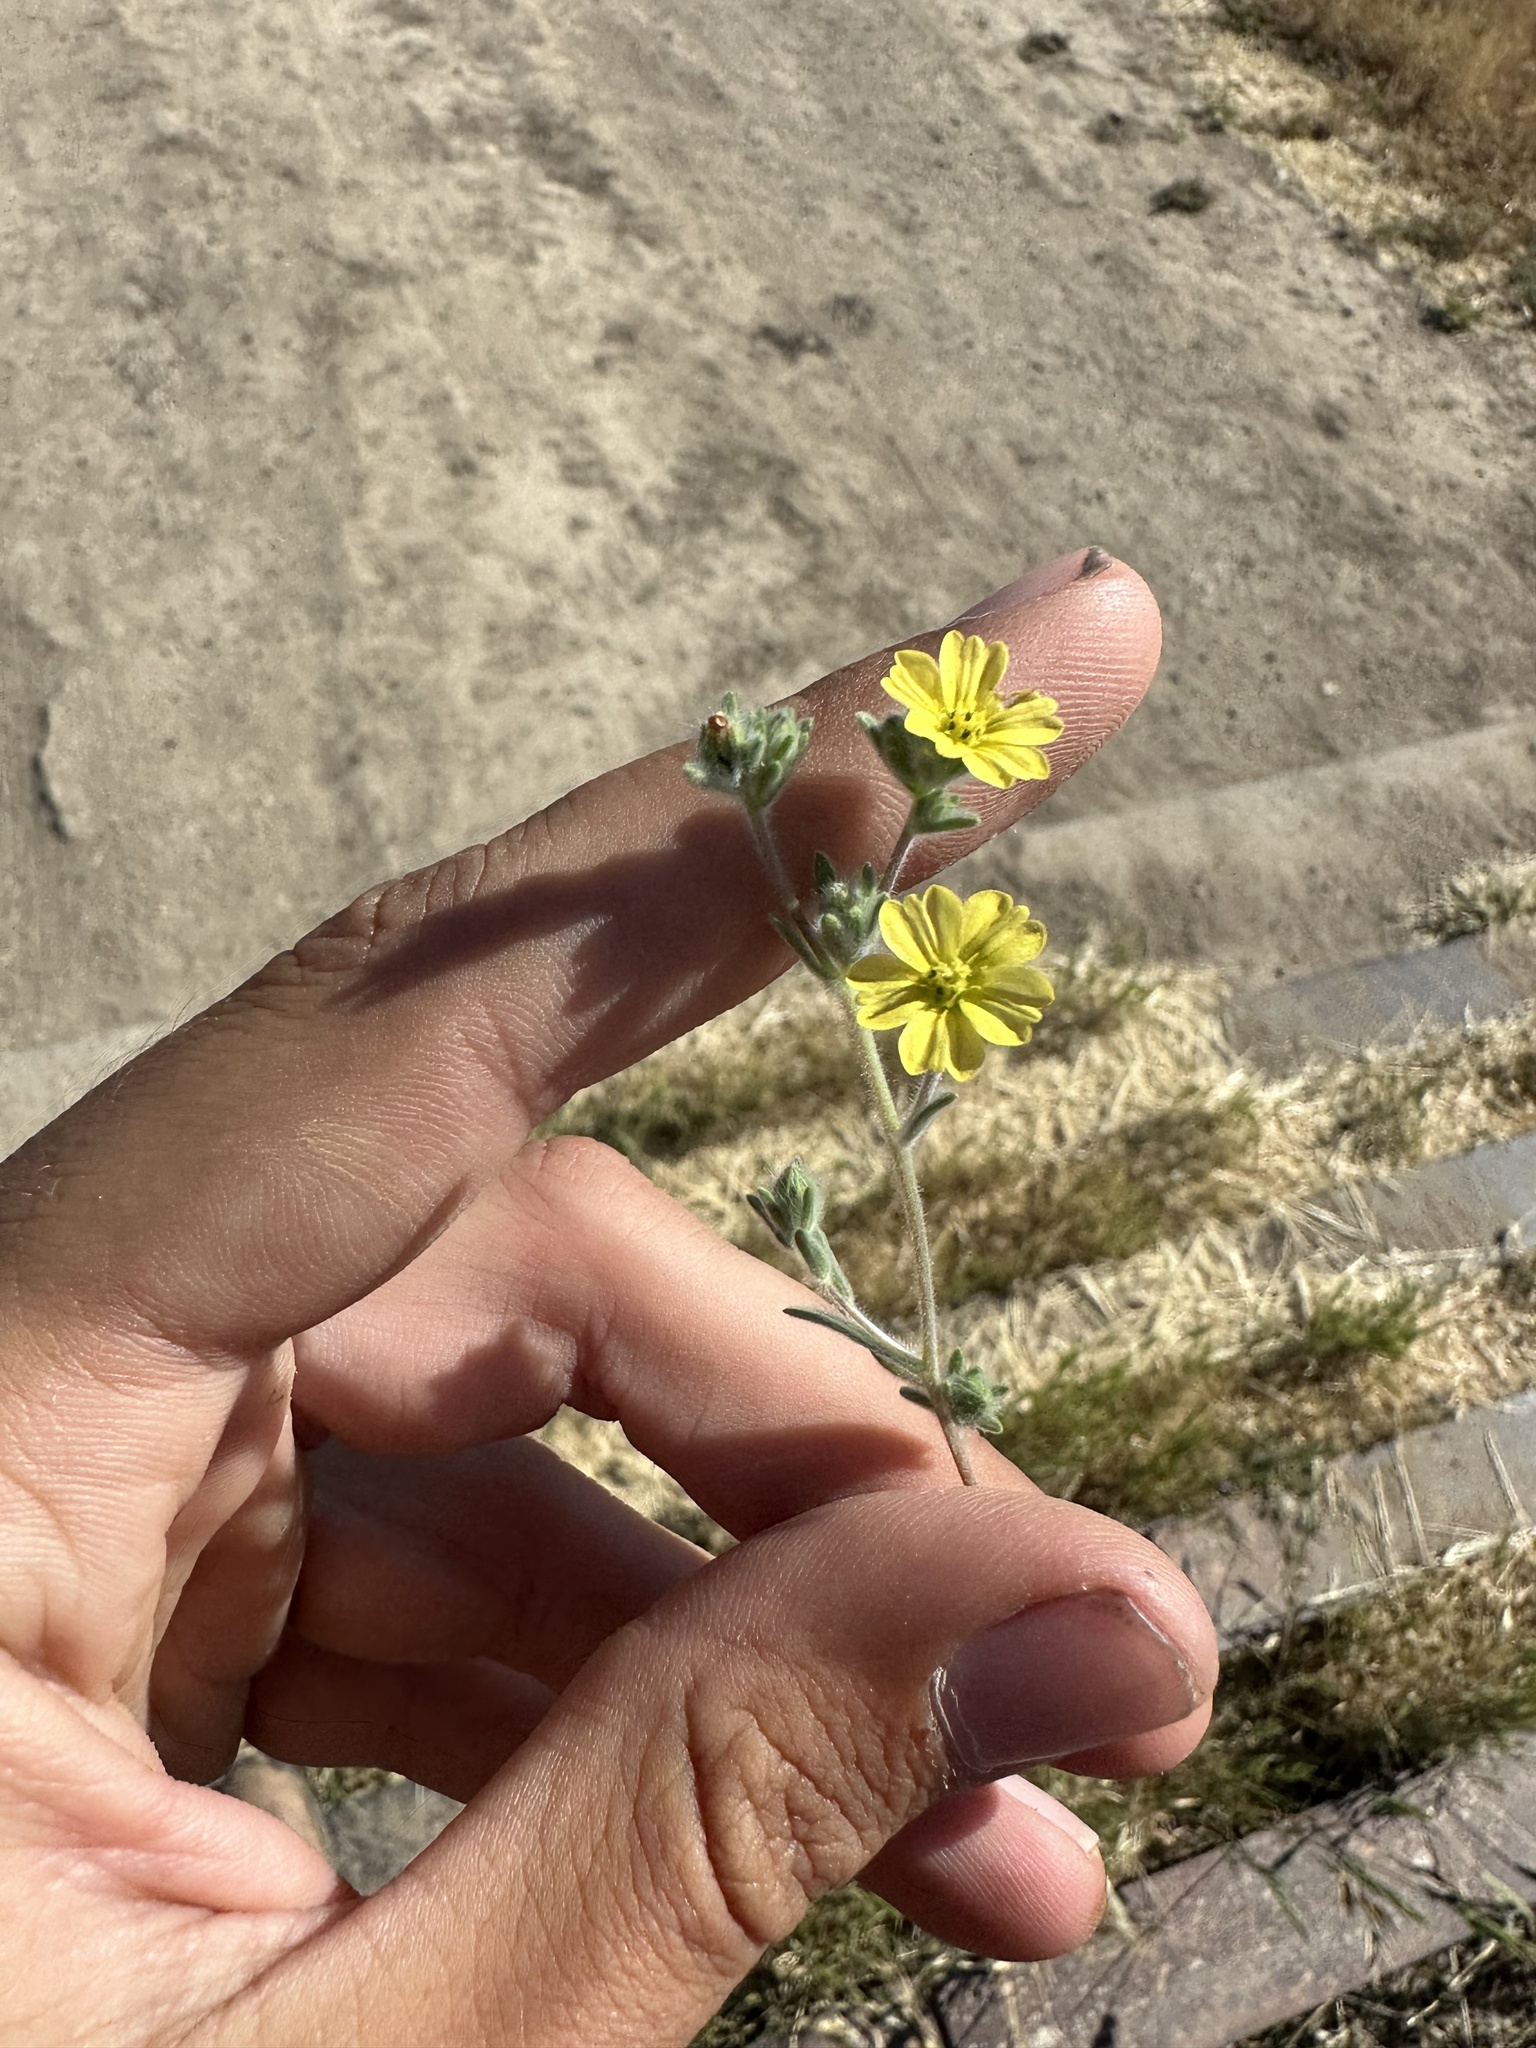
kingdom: Plantae
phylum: Tracheophyta
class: Magnoliopsida
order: Asterales
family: Asteraceae
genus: Lagophylla
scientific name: Lagophylla ramosissima
